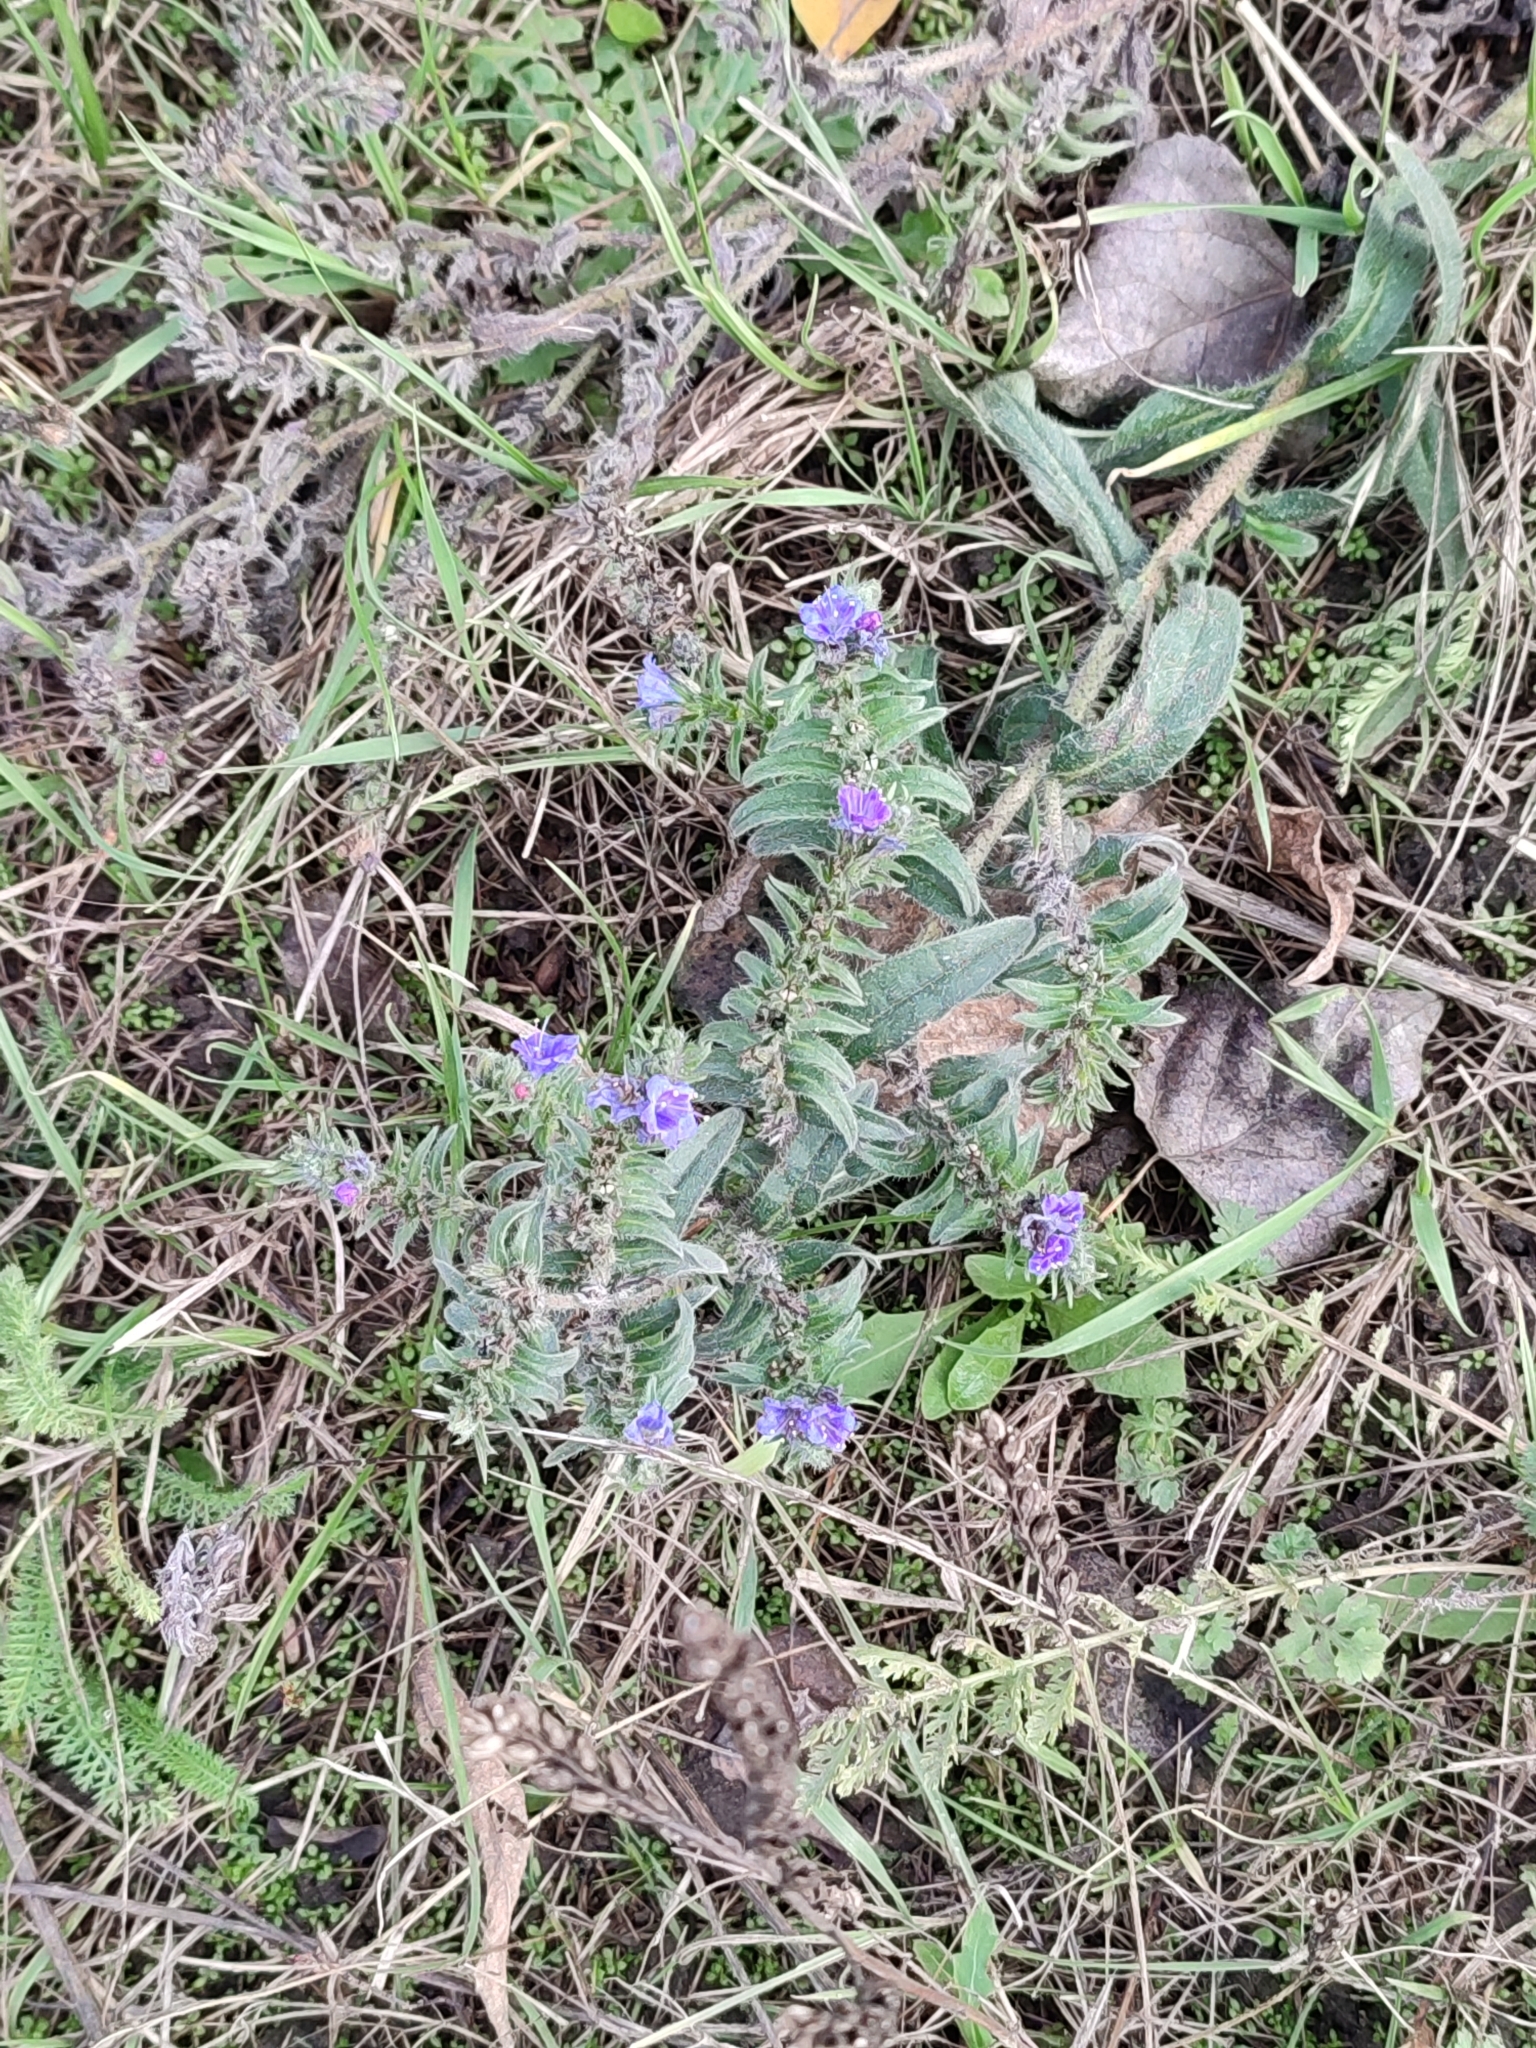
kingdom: Plantae
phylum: Tracheophyta
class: Magnoliopsida
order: Boraginales
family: Boraginaceae
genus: Echium
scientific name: Echium vulgare
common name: Common viper's bugloss
